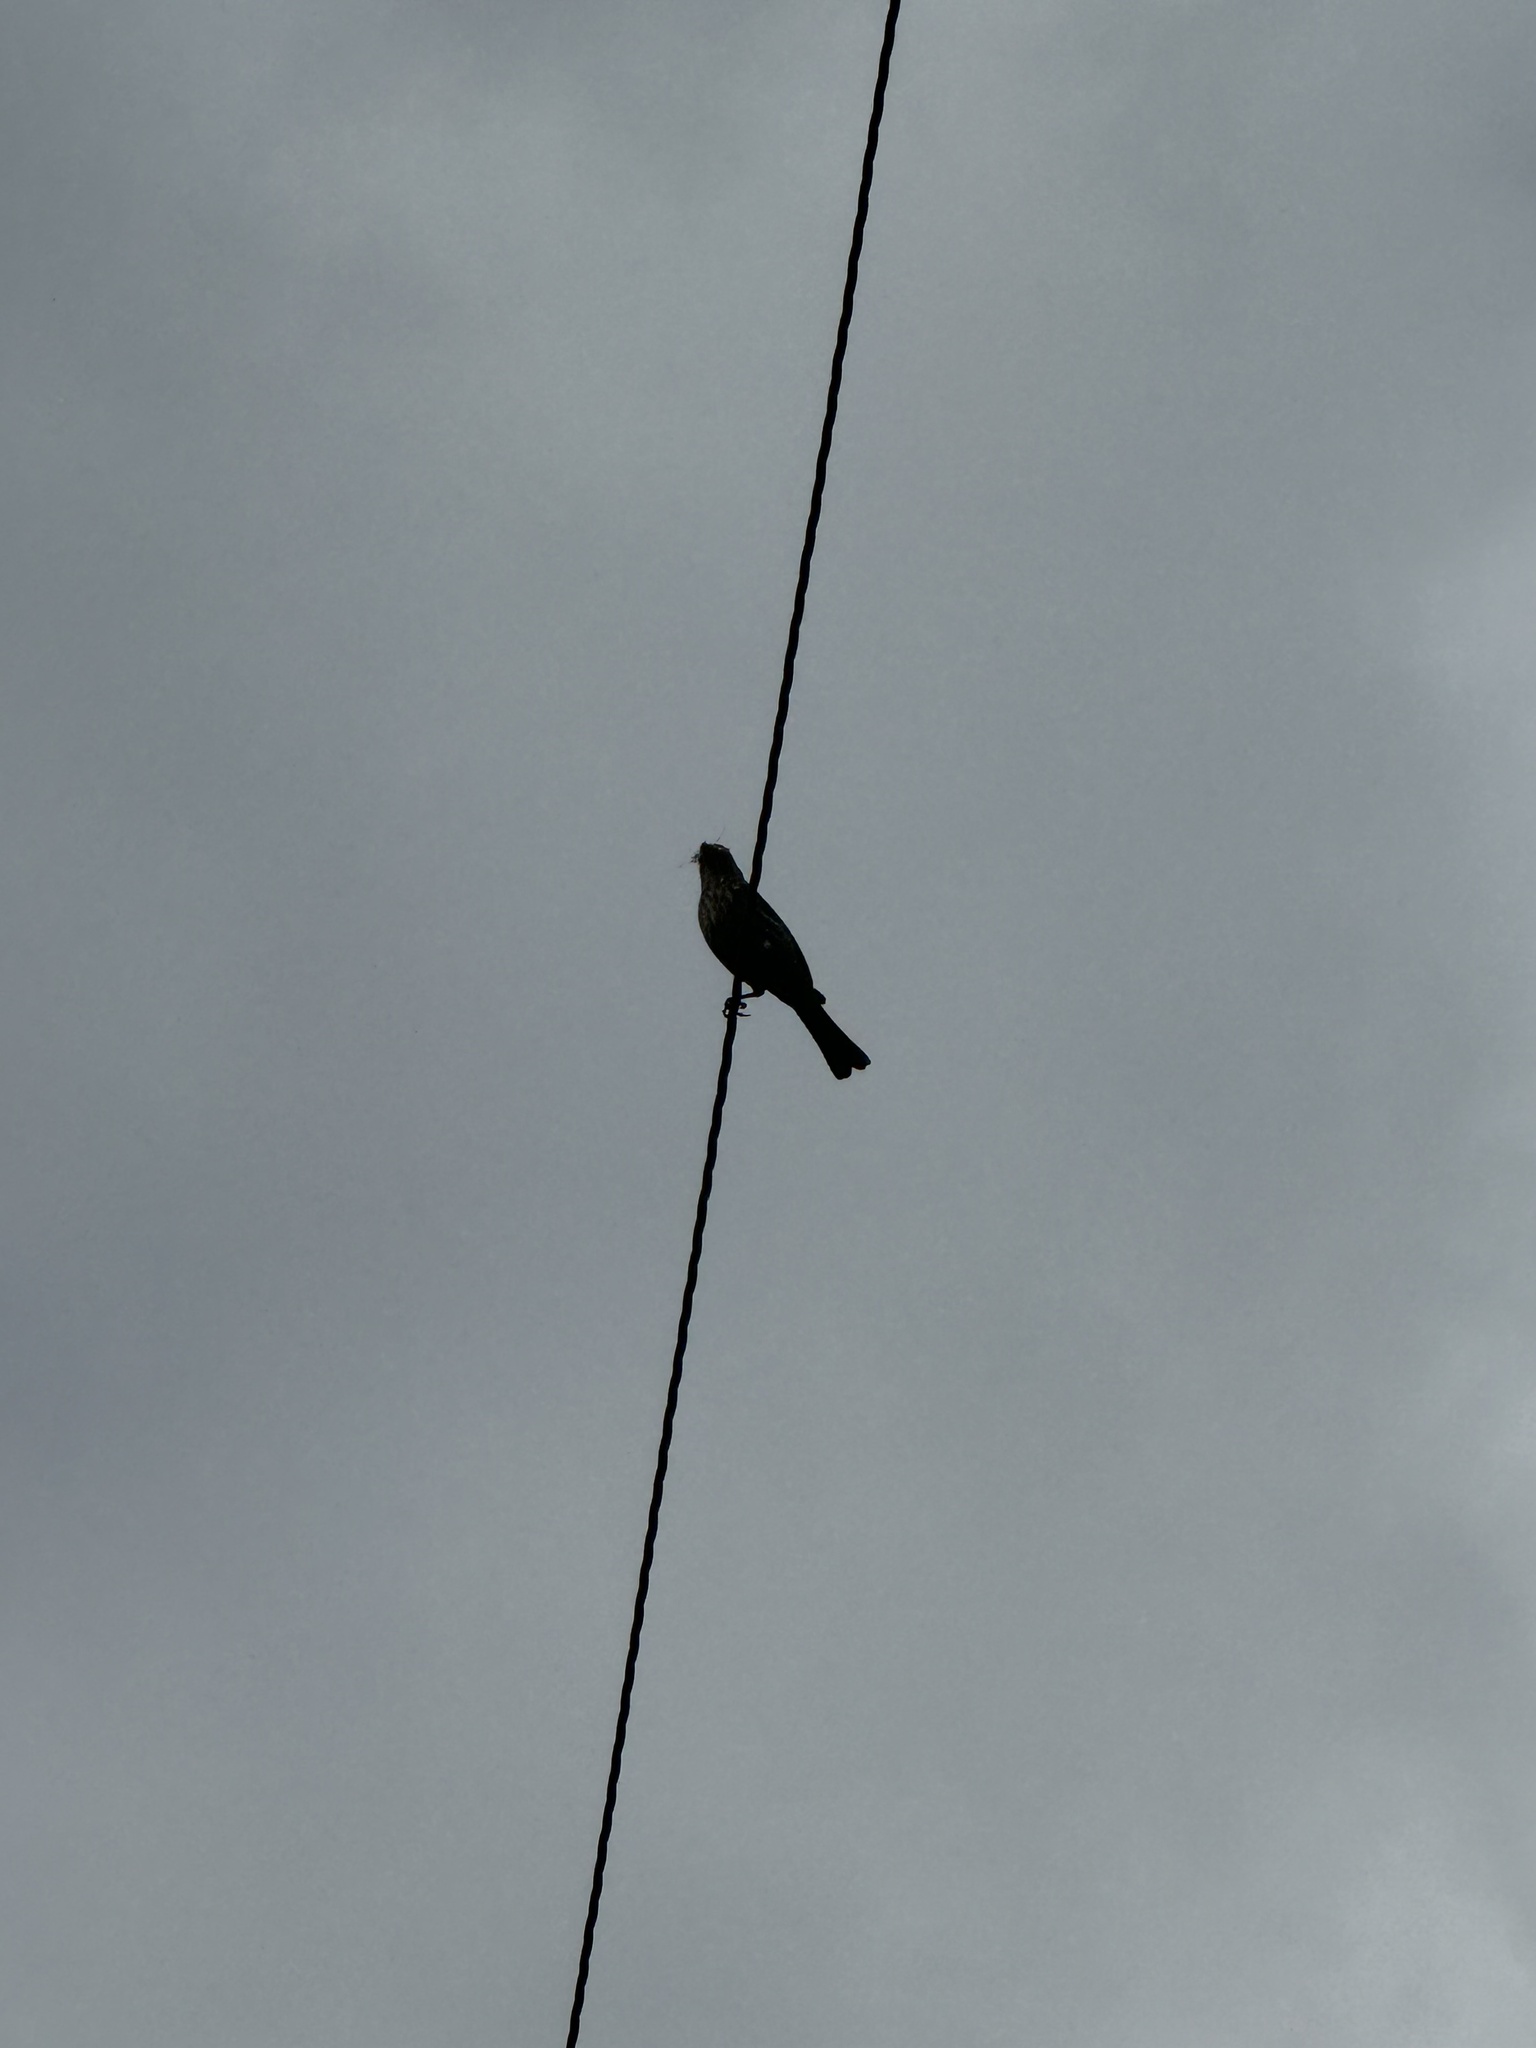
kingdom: Animalia
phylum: Chordata
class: Aves
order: Passeriformes
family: Fringillidae
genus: Haemorhous
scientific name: Haemorhous mexicanus
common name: House finch
